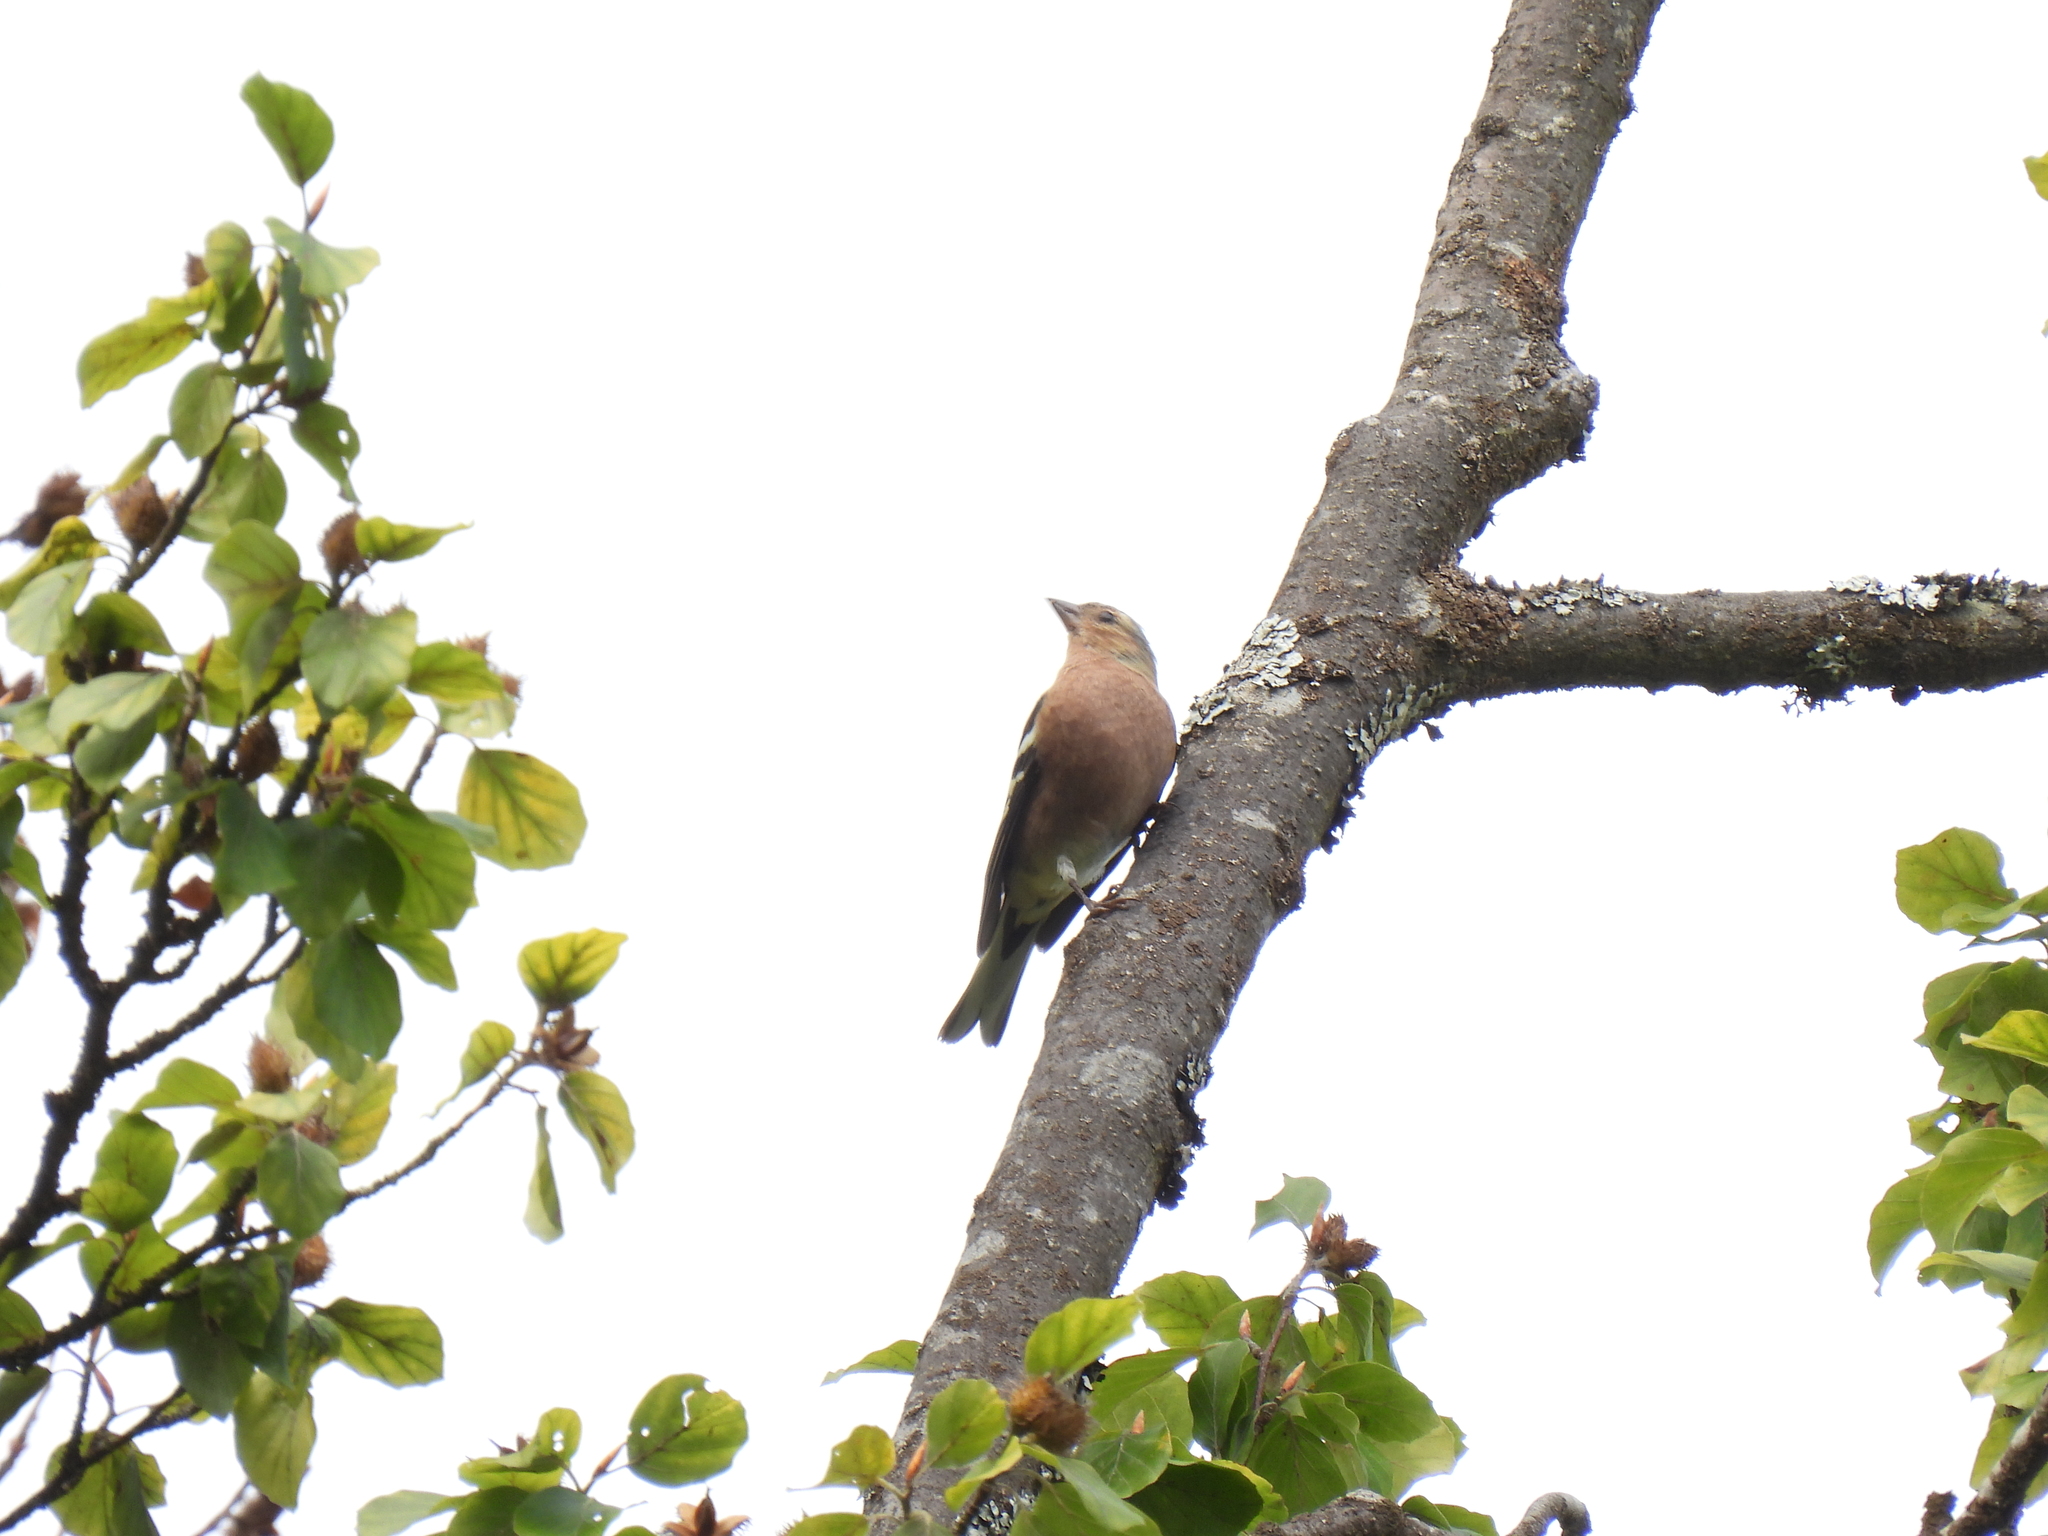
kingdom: Animalia
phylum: Chordata
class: Aves
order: Passeriformes
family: Fringillidae
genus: Fringilla
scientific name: Fringilla coelebs
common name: Common chaffinch
